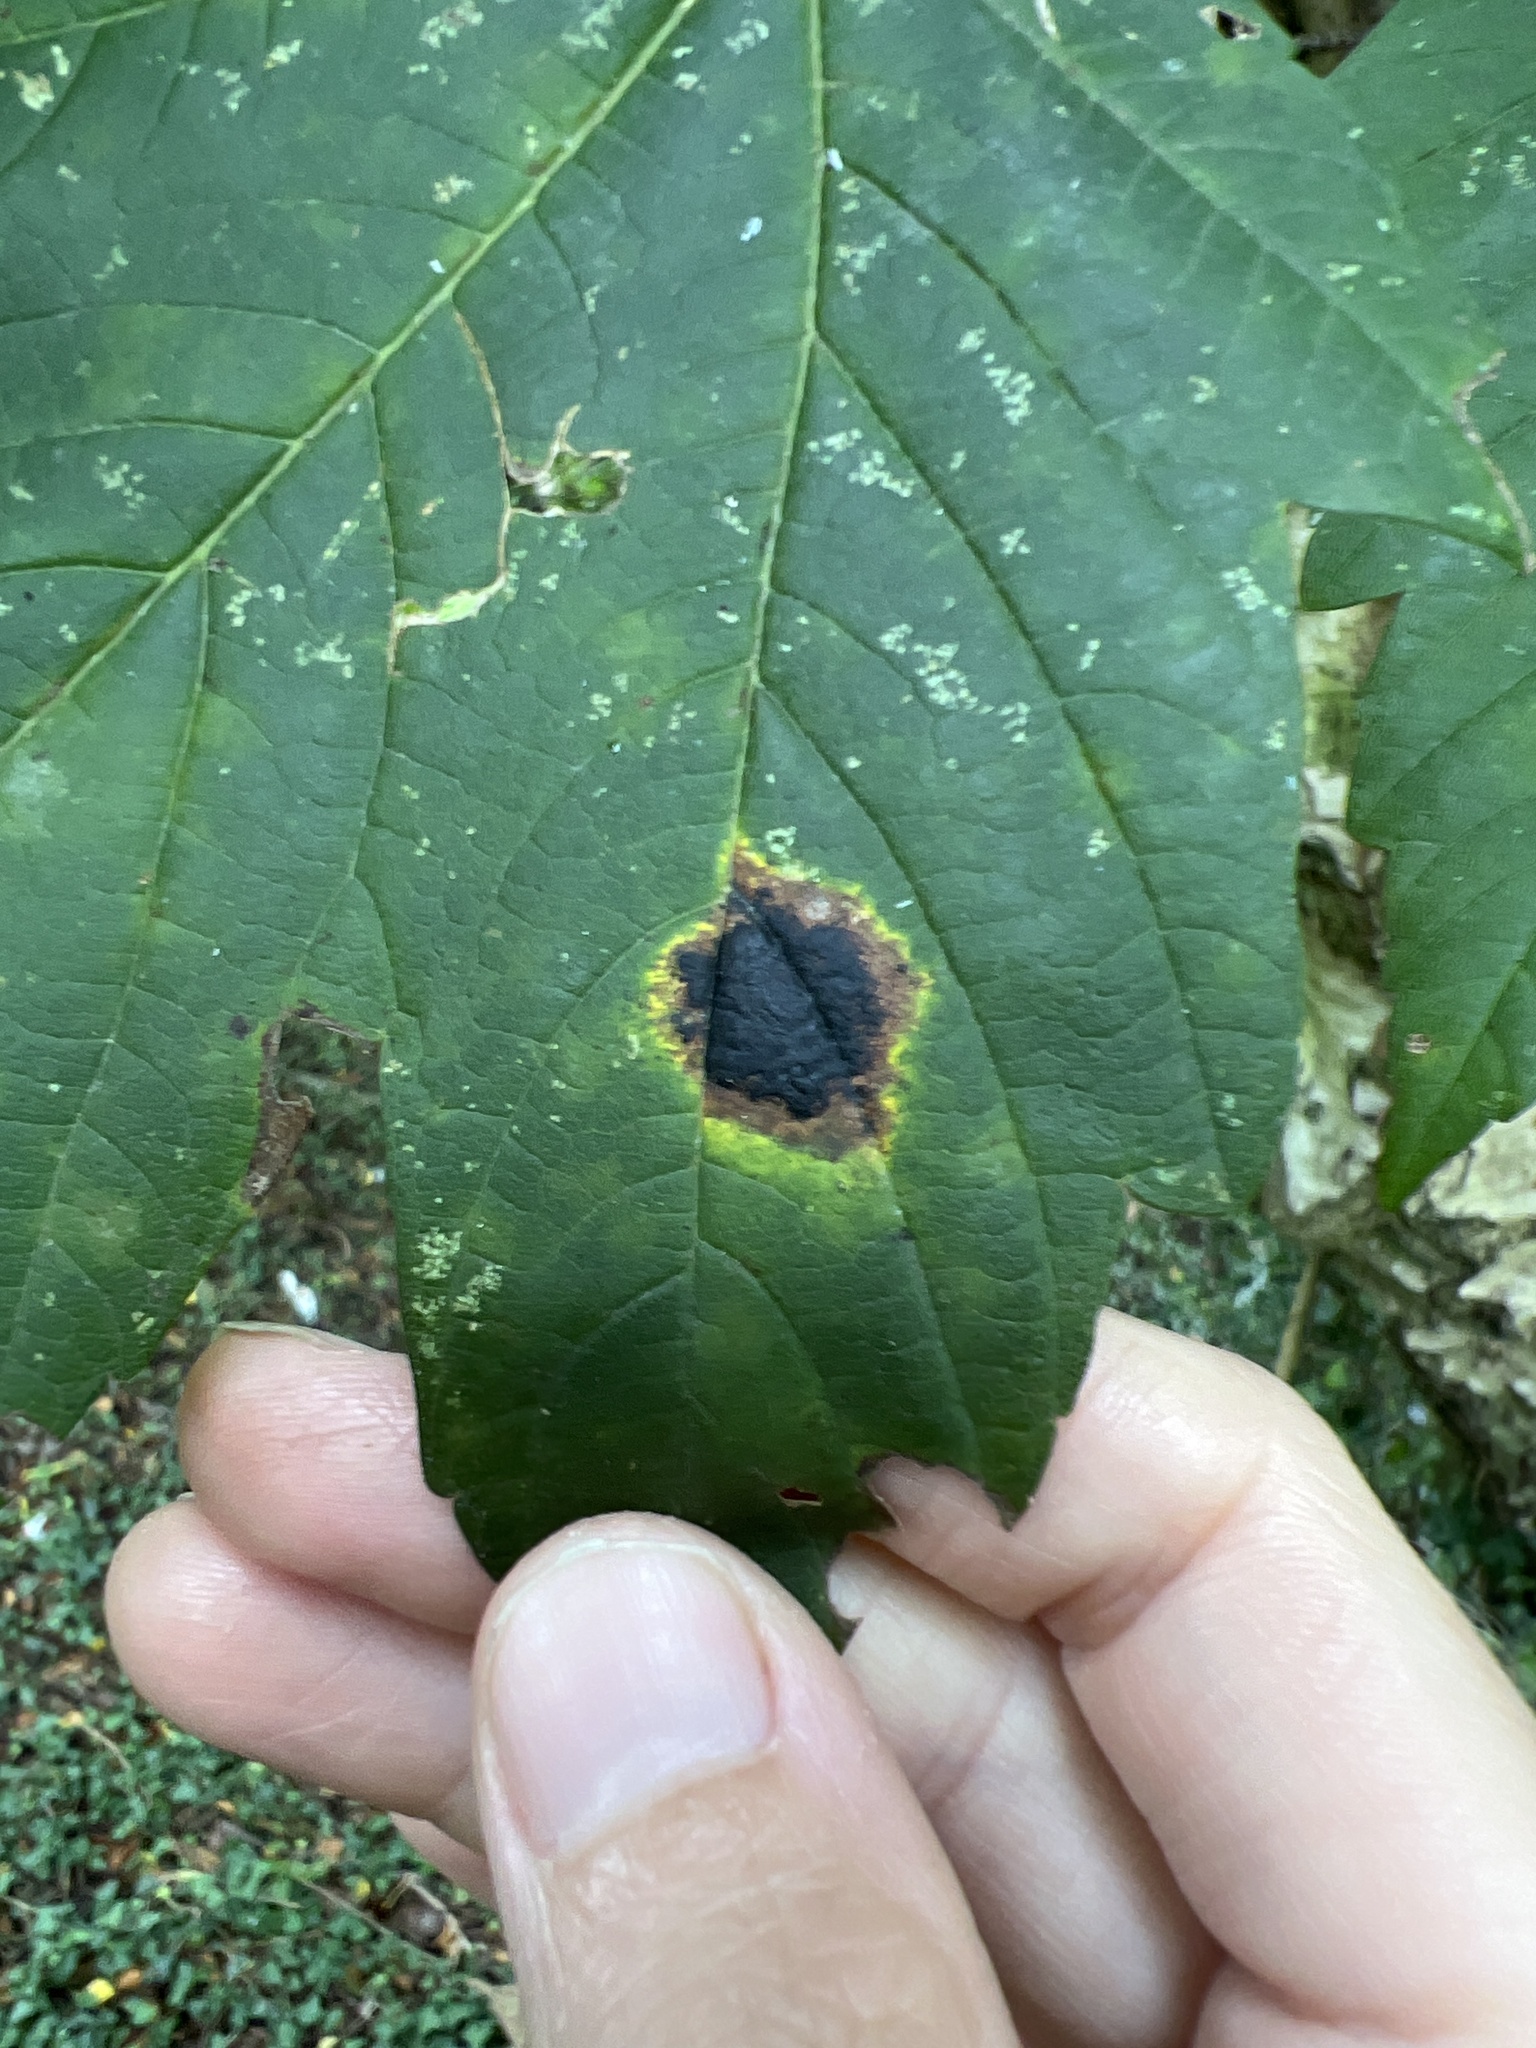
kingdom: Fungi
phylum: Ascomycota
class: Leotiomycetes
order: Rhytismatales
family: Rhytismataceae
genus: Rhytisma
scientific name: Rhytisma acerinum
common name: European tar spot
